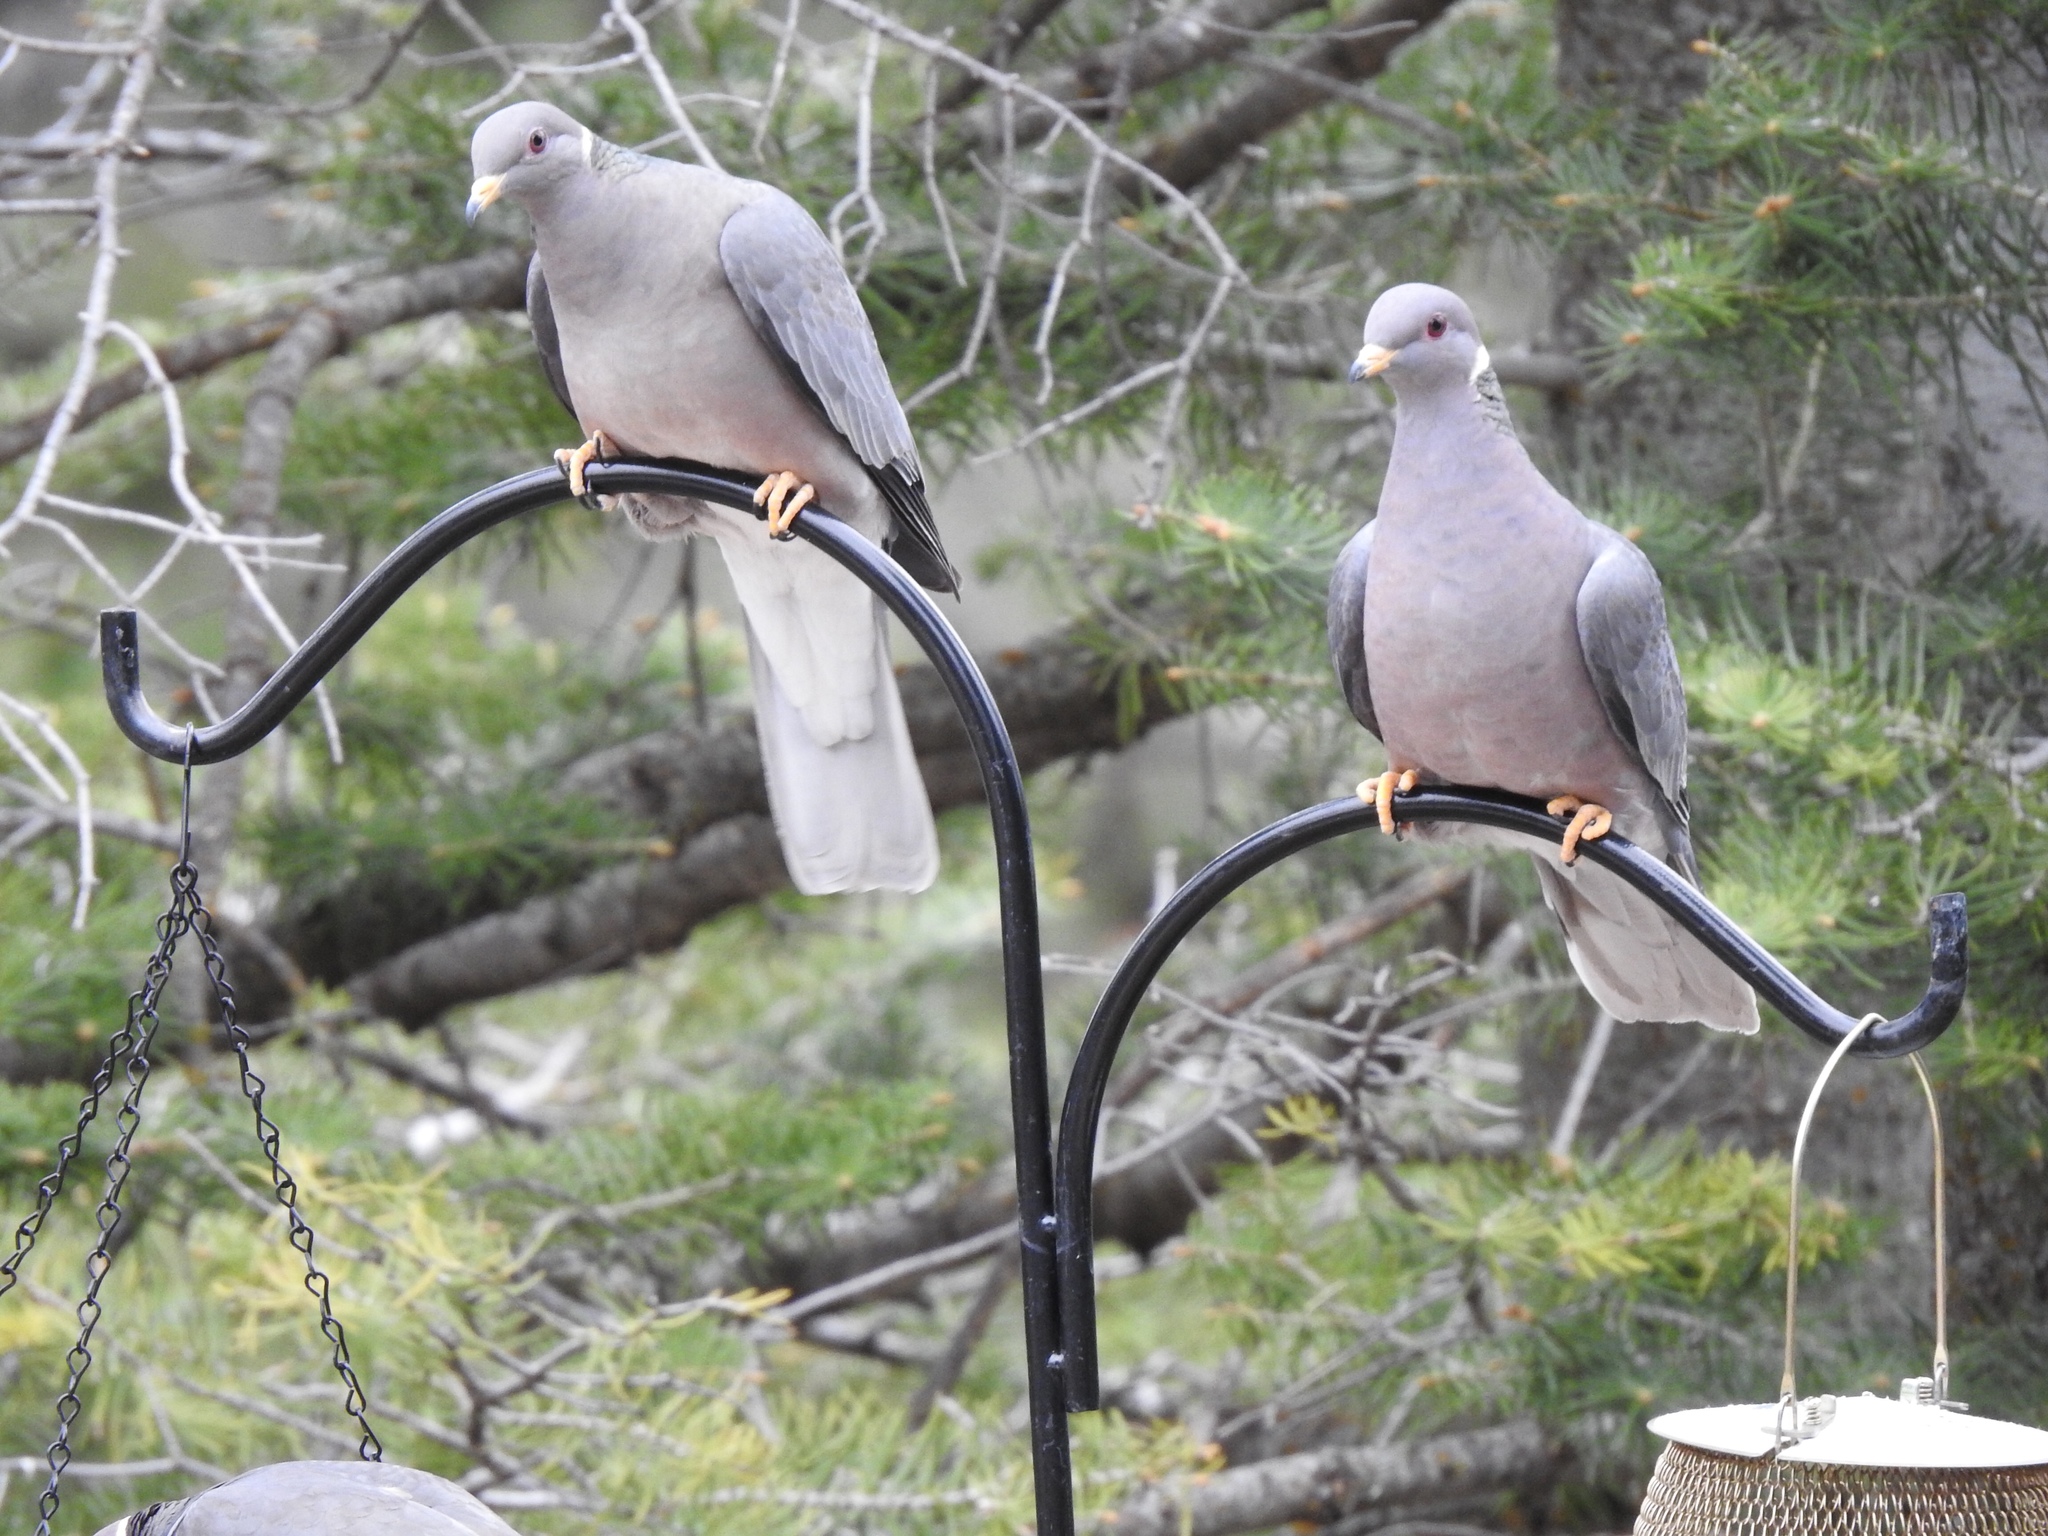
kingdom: Animalia
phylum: Chordata
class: Aves
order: Columbiformes
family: Columbidae
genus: Patagioenas
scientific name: Patagioenas fasciata
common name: Band-tailed pigeon
